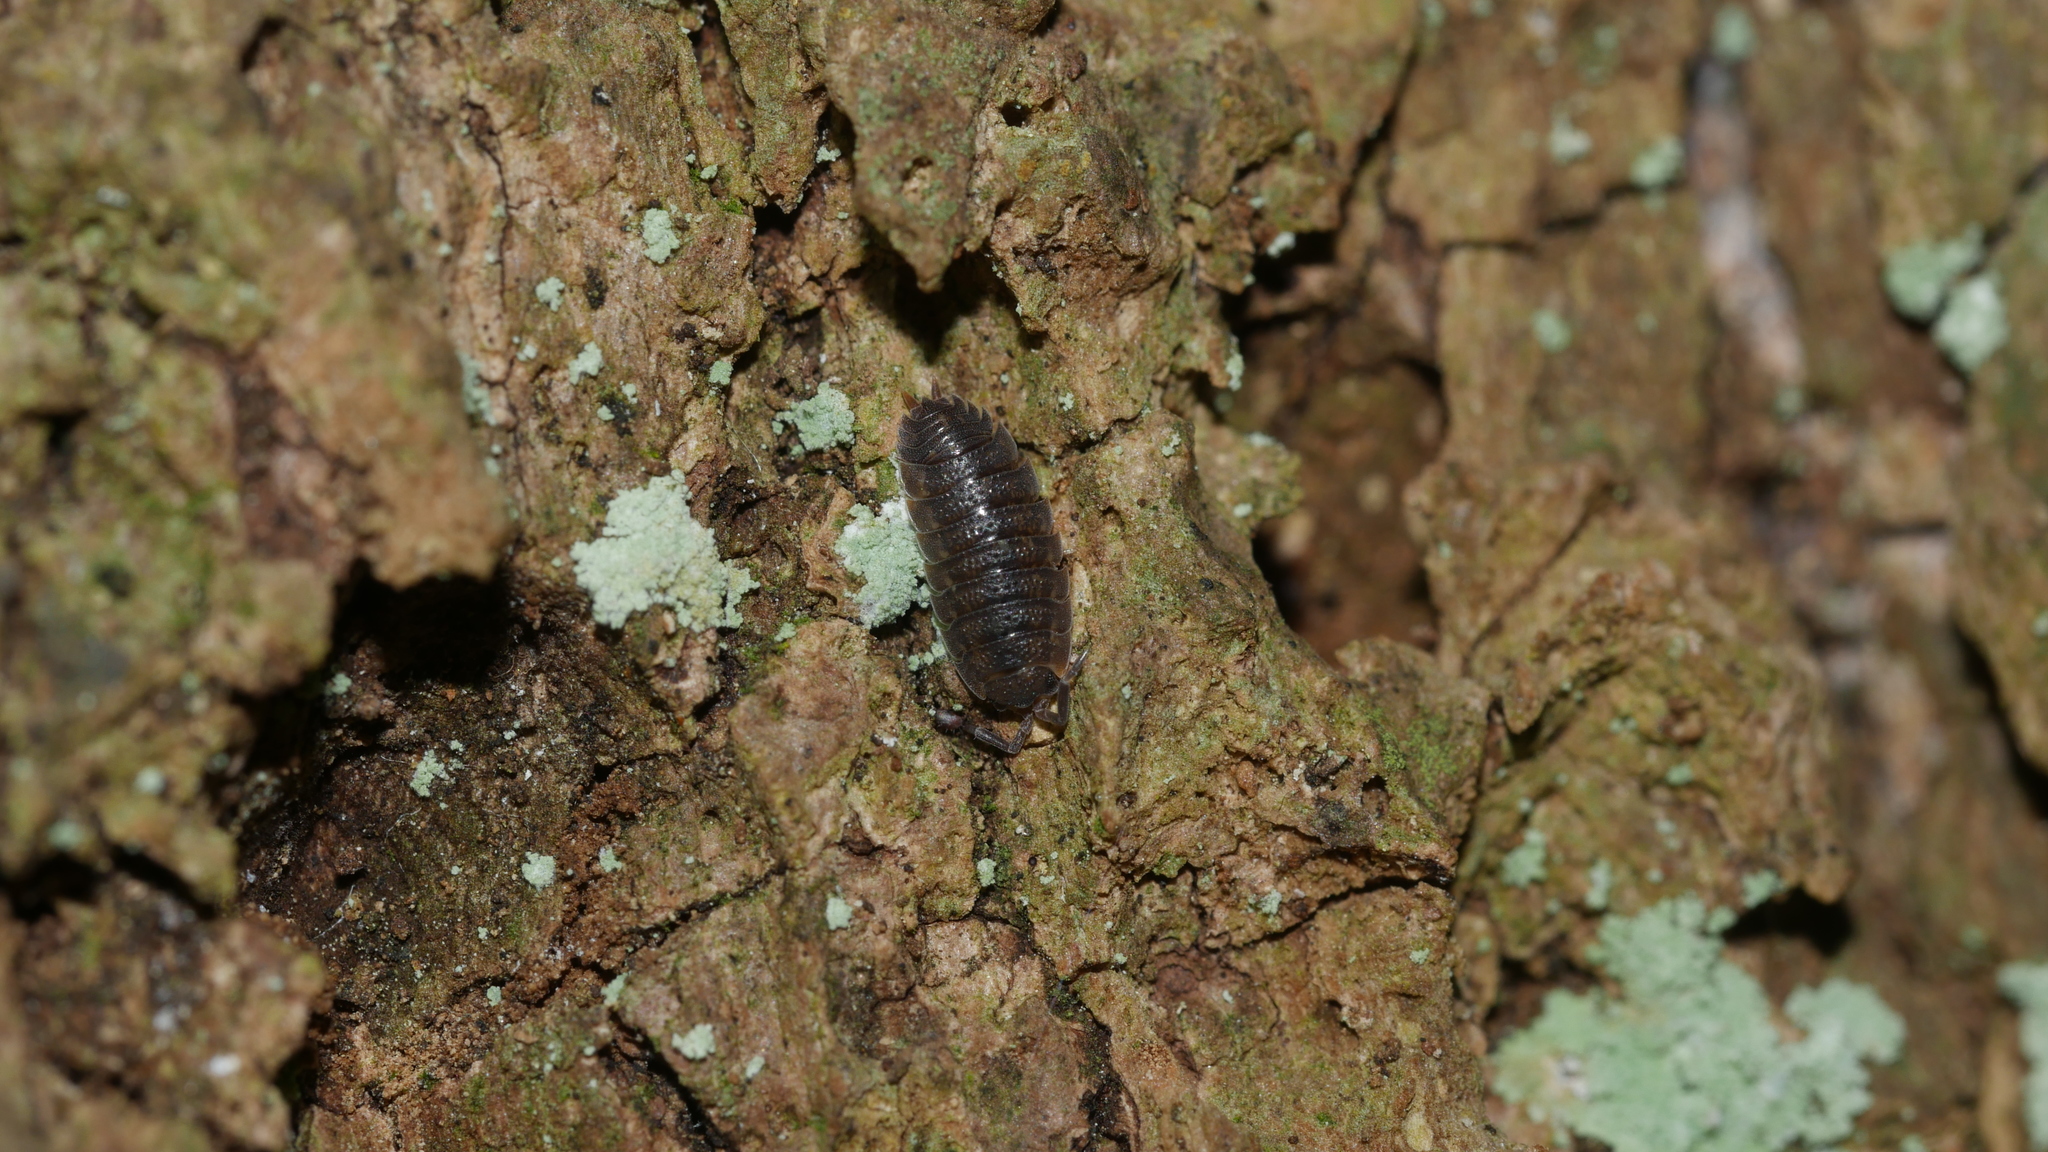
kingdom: Animalia
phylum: Arthropoda
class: Malacostraca
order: Isopoda
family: Porcellionidae
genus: Porcellio
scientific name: Porcellio scaber
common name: Common rough woodlouse
